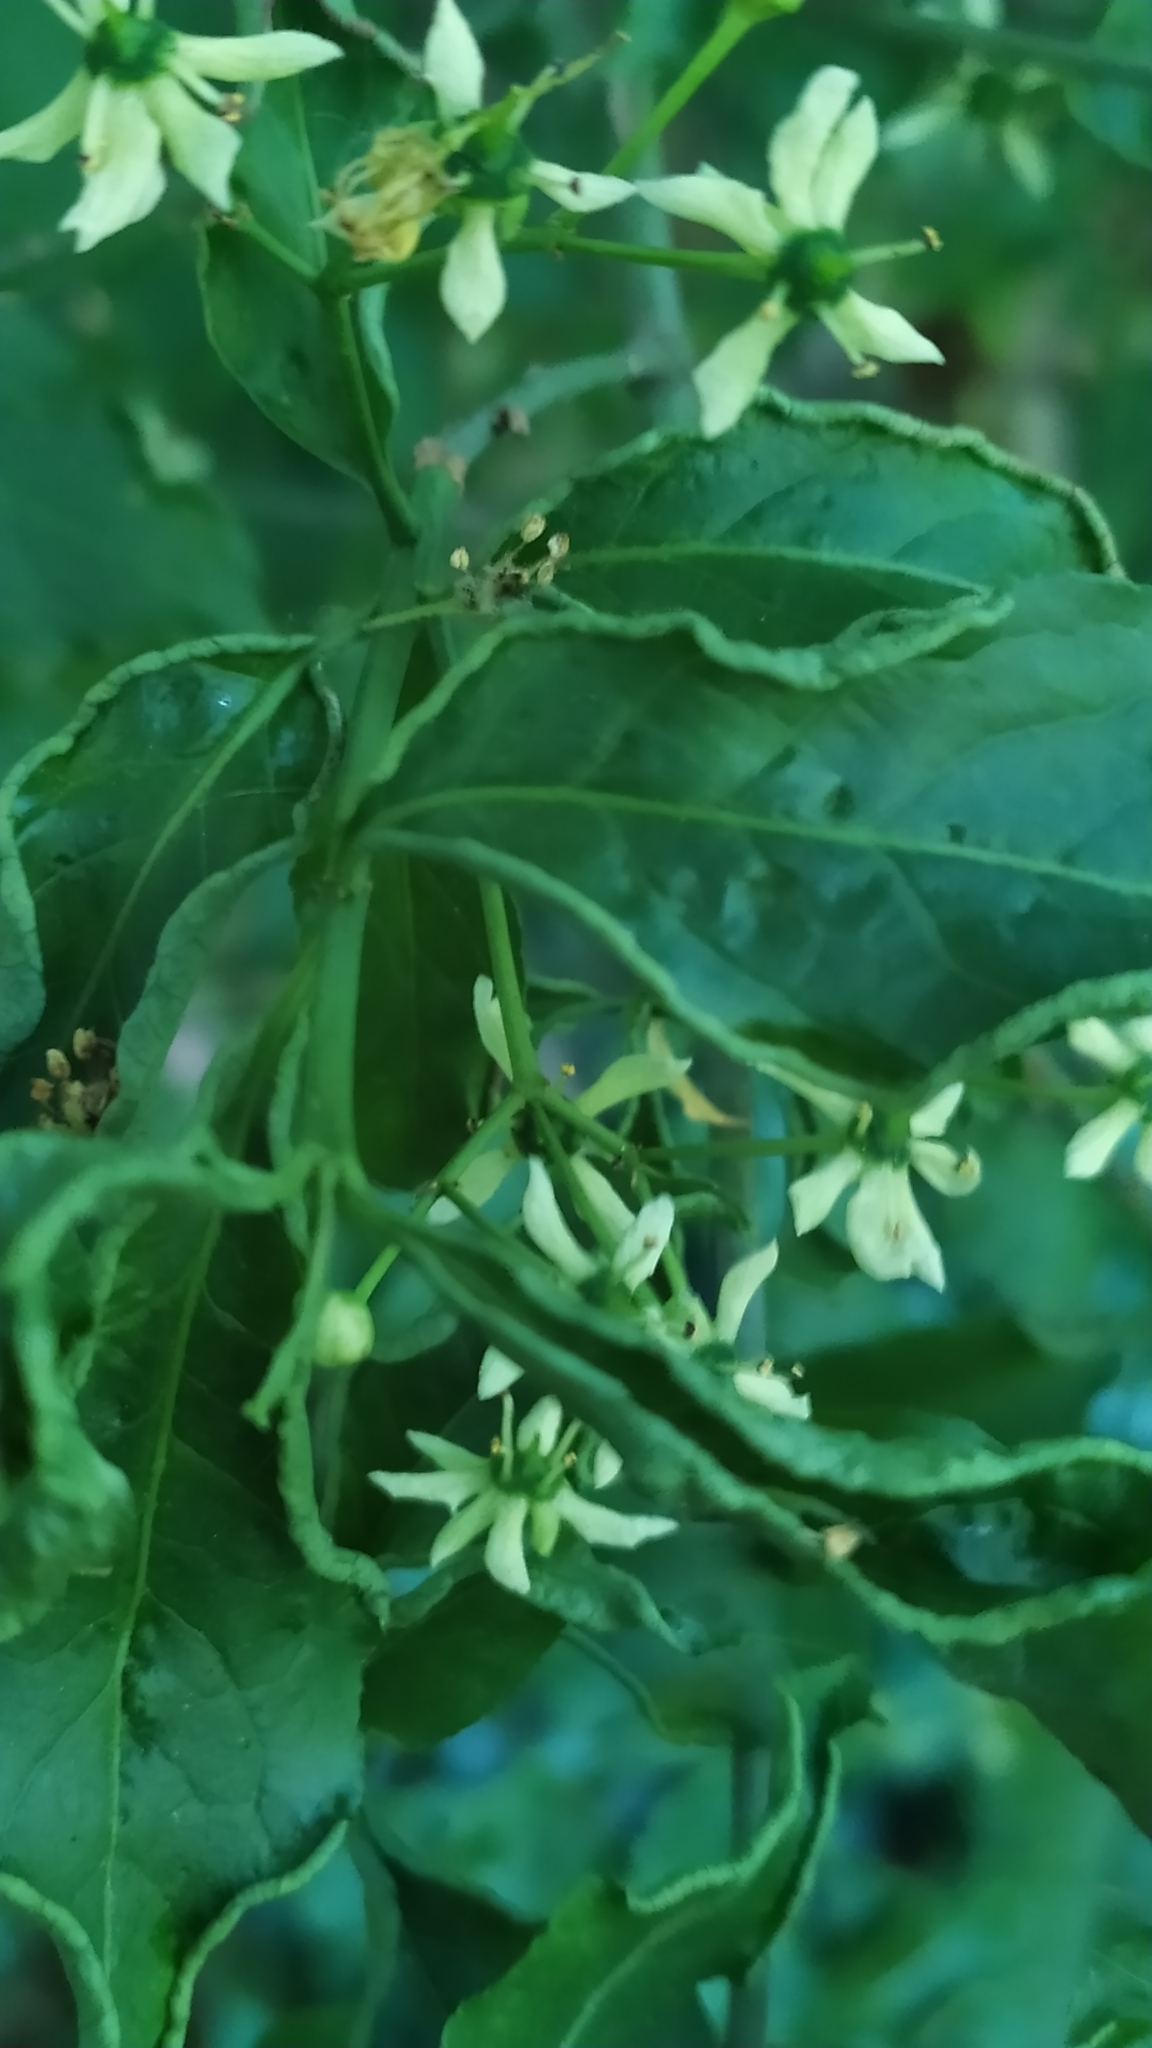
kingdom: Plantae
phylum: Tracheophyta
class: Magnoliopsida
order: Celastrales
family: Celastraceae
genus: Euonymus
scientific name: Euonymus europaeus
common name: Spindle
